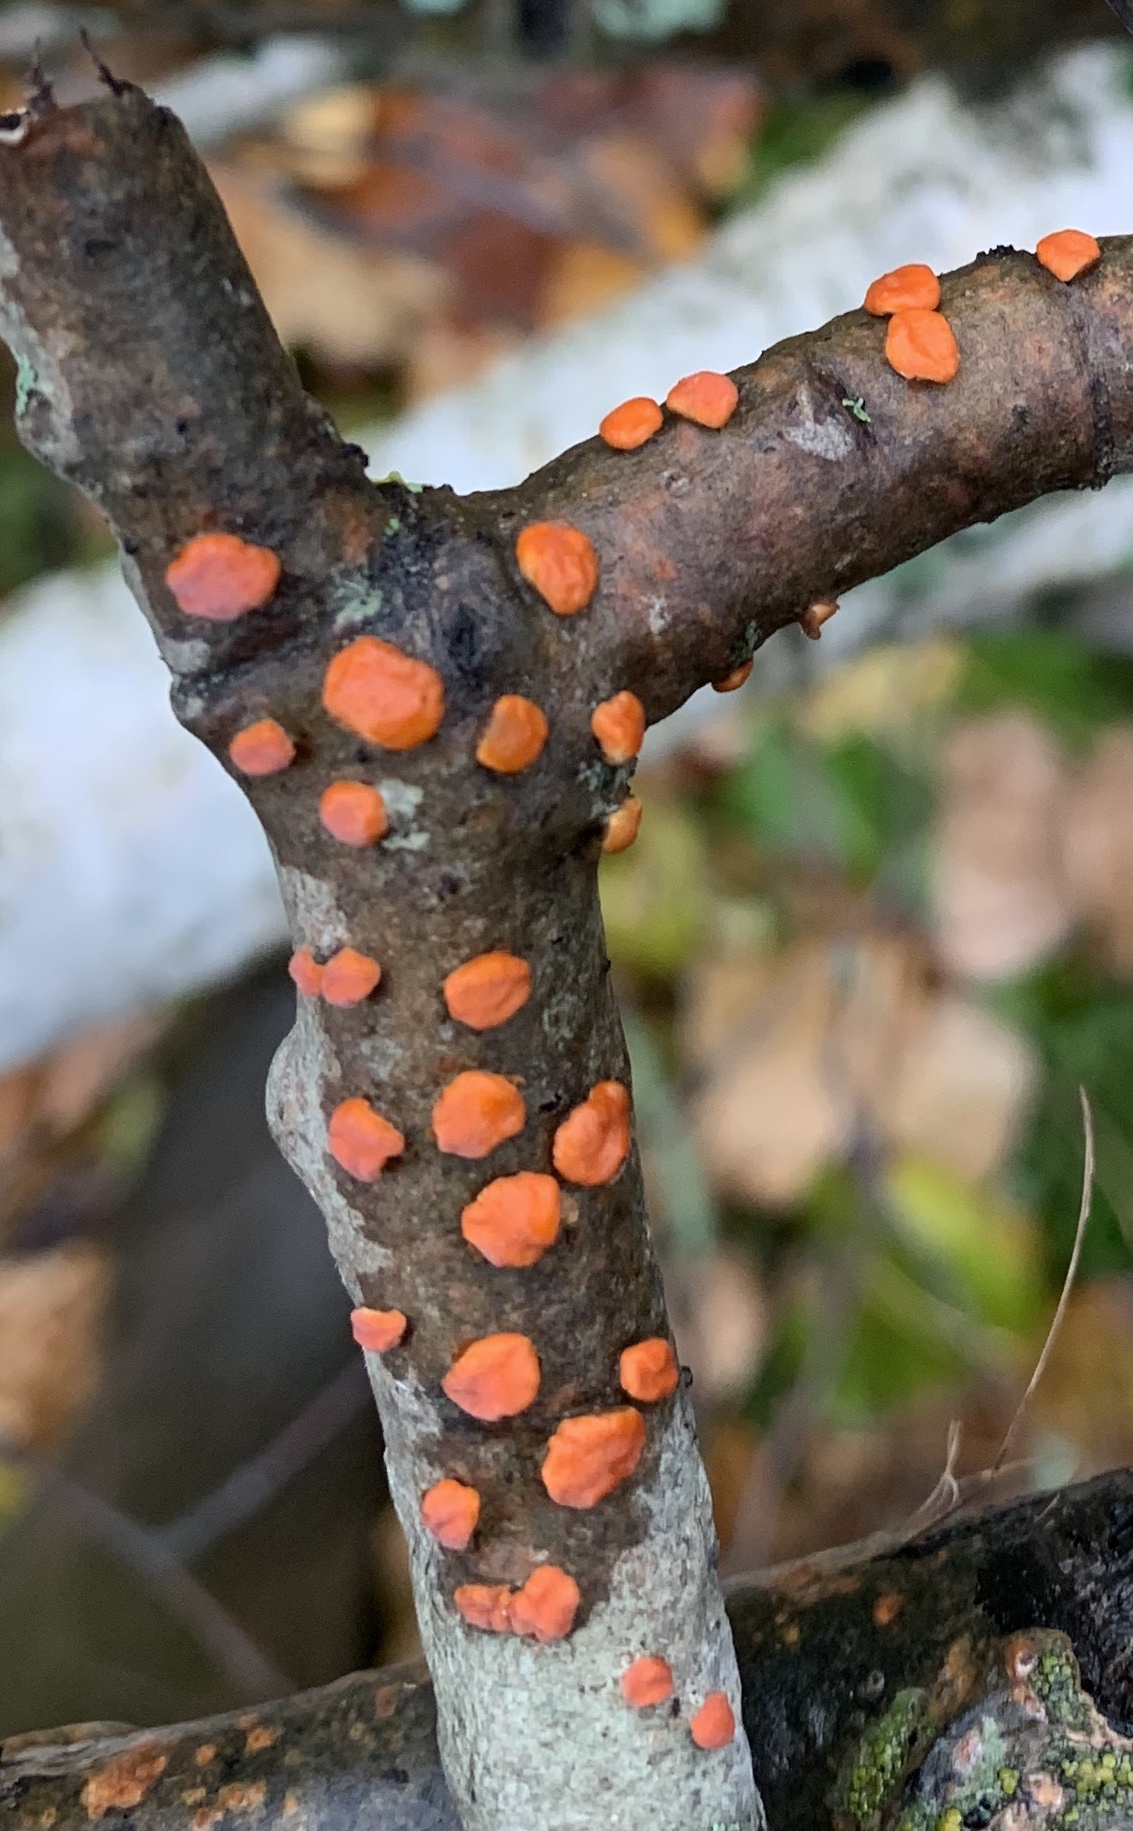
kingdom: Fungi
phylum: Ascomycota
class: Sordariomycetes
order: Hypocreales
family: Nectriaceae
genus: Nectria
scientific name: Nectria cinnabarina
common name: Coral spot
